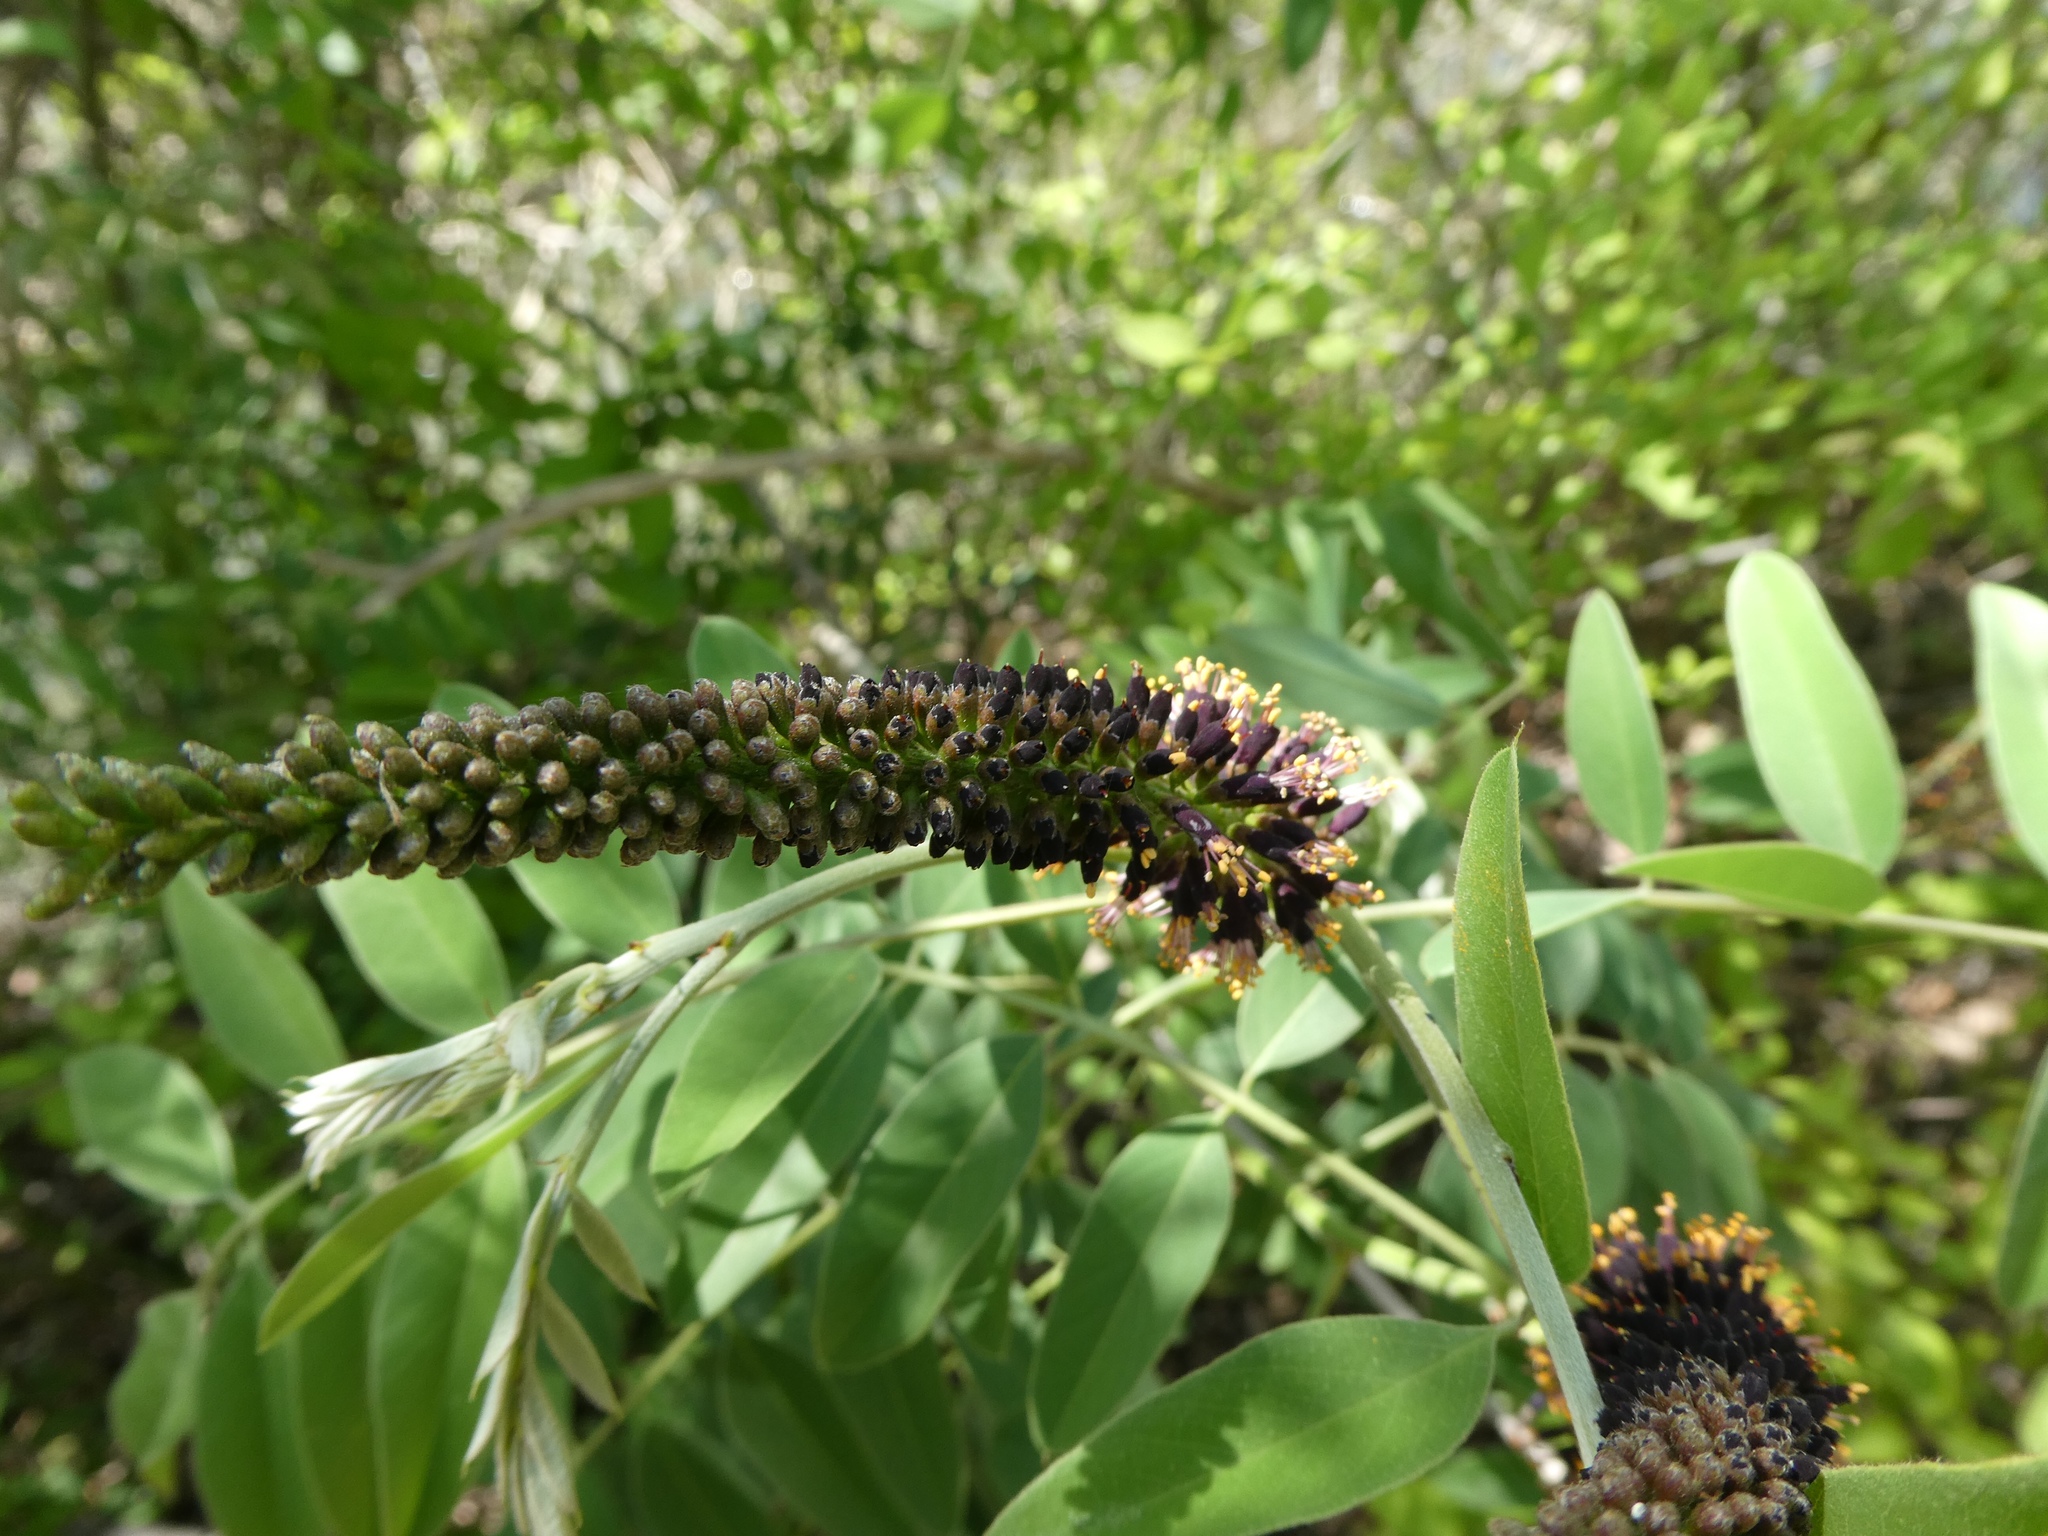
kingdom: Plantae
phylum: Tracheophyta
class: Magnoliopsida
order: Fabales
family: Fabaceae
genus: Amorpha
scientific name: Amorpha fruticosa
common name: False indigo
